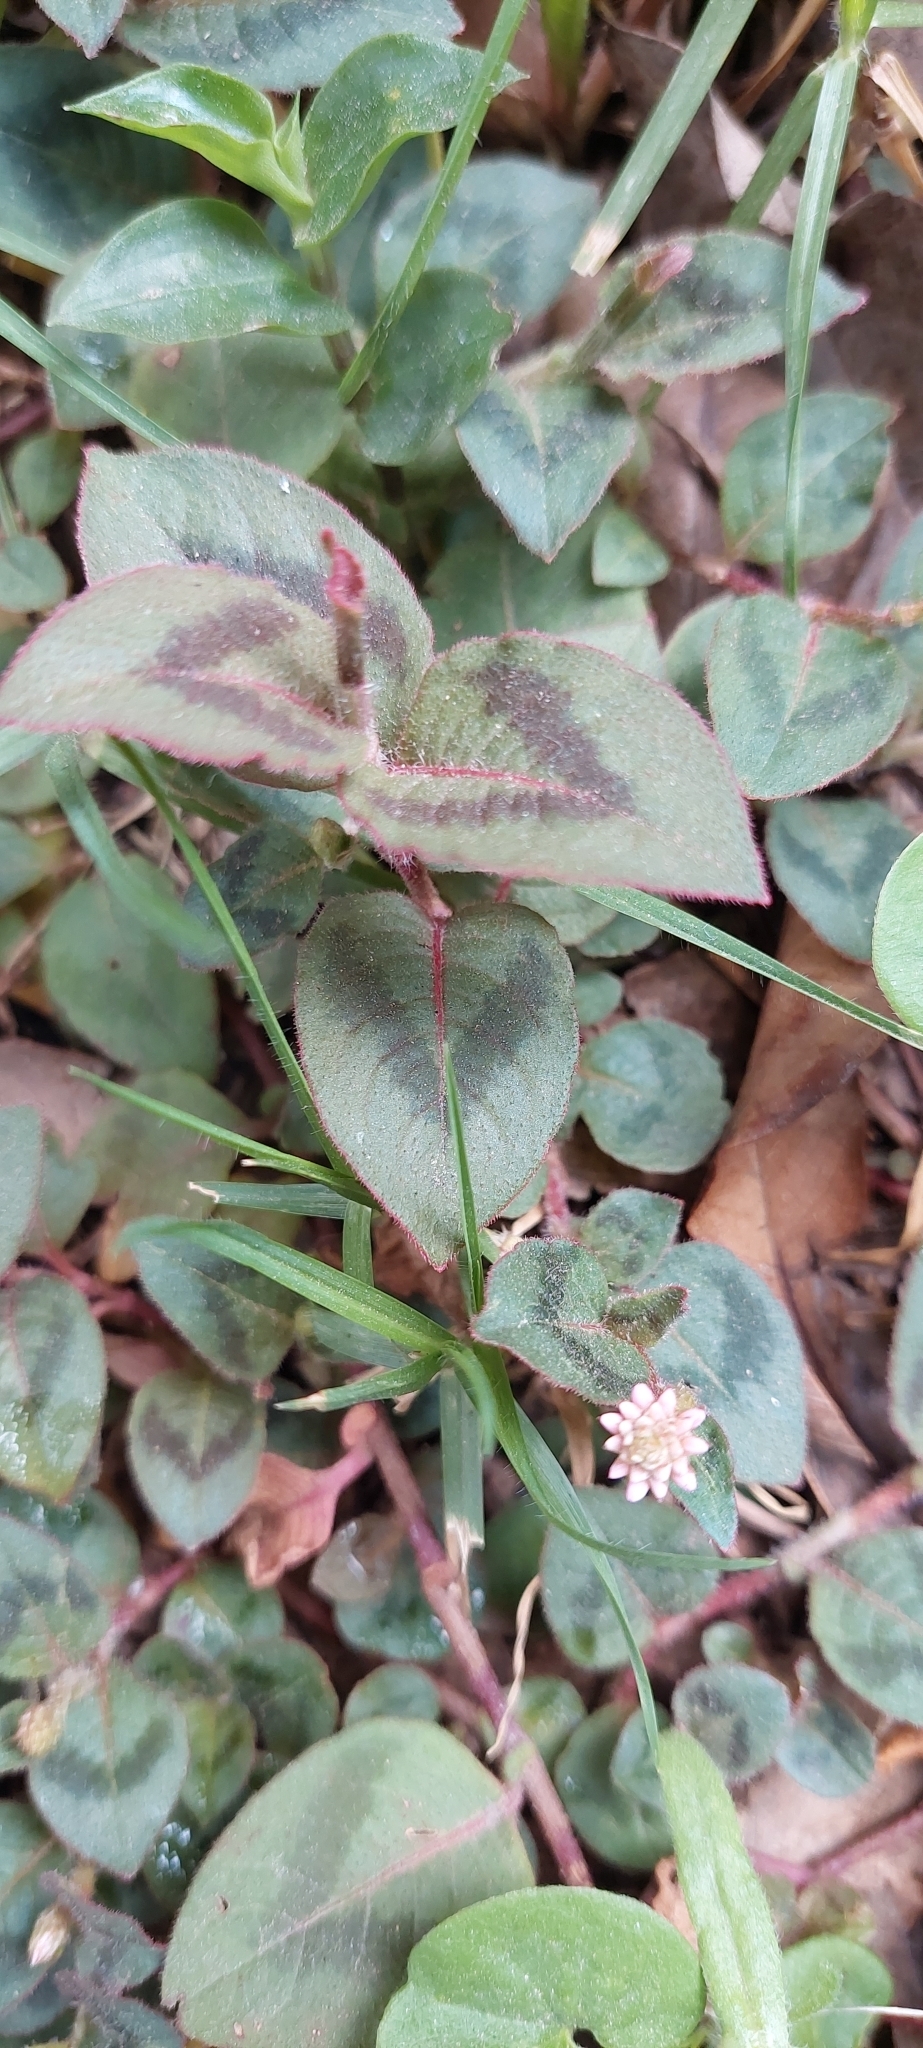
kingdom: Plantae
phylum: Tracheophyta
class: Magnoliopsida
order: Caryophyllales
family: Polygonaceae
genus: Persicaria
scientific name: Persicaria capitata
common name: Pinkhead smartweed
